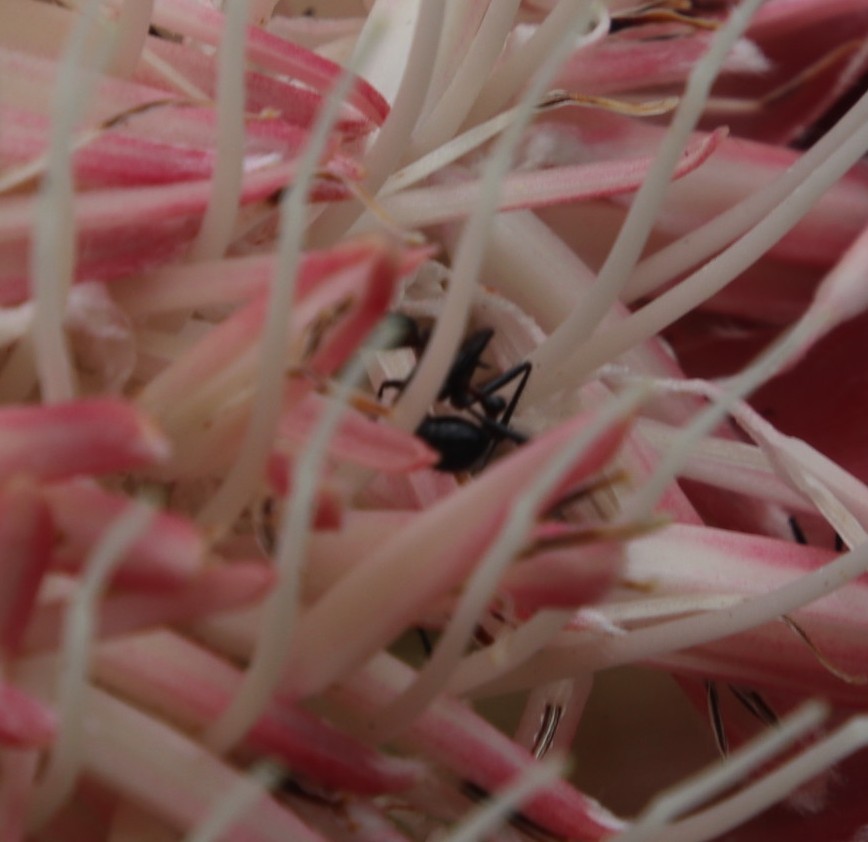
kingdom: Plantae
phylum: Tracheophyta
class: Magnoliopsida
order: Proteales
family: Proteaceae
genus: Protea
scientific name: Protea caffra
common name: Common sugarbush
